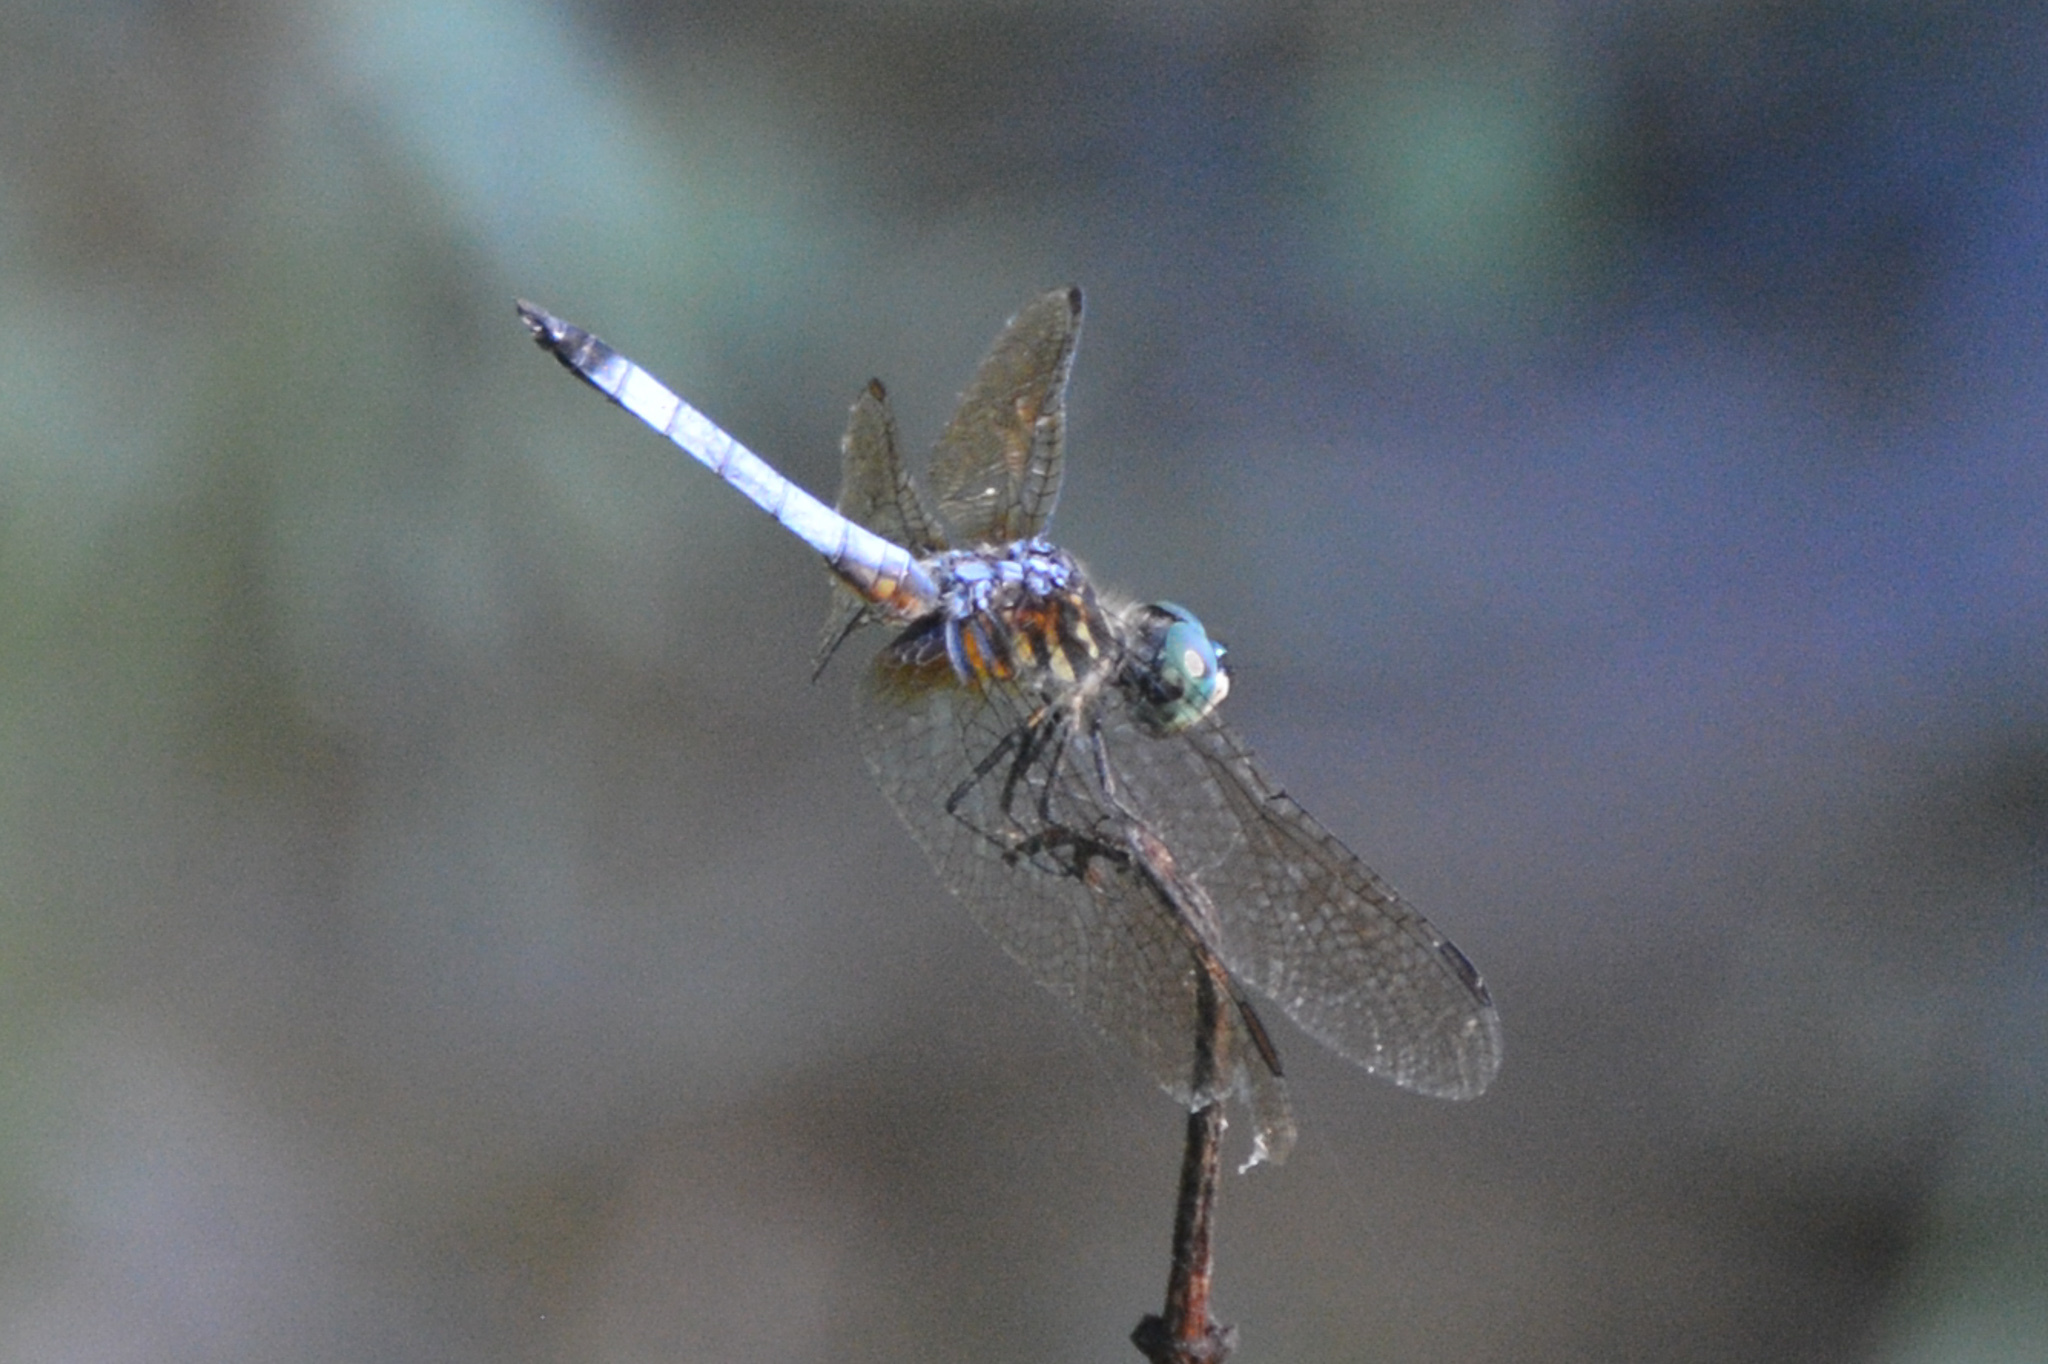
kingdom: Animalia
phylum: Arthropoda
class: Insecta
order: Odonata
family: Libellulidae
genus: Pachydiplax
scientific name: Pachydiplax longipennis
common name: Blue dasher
